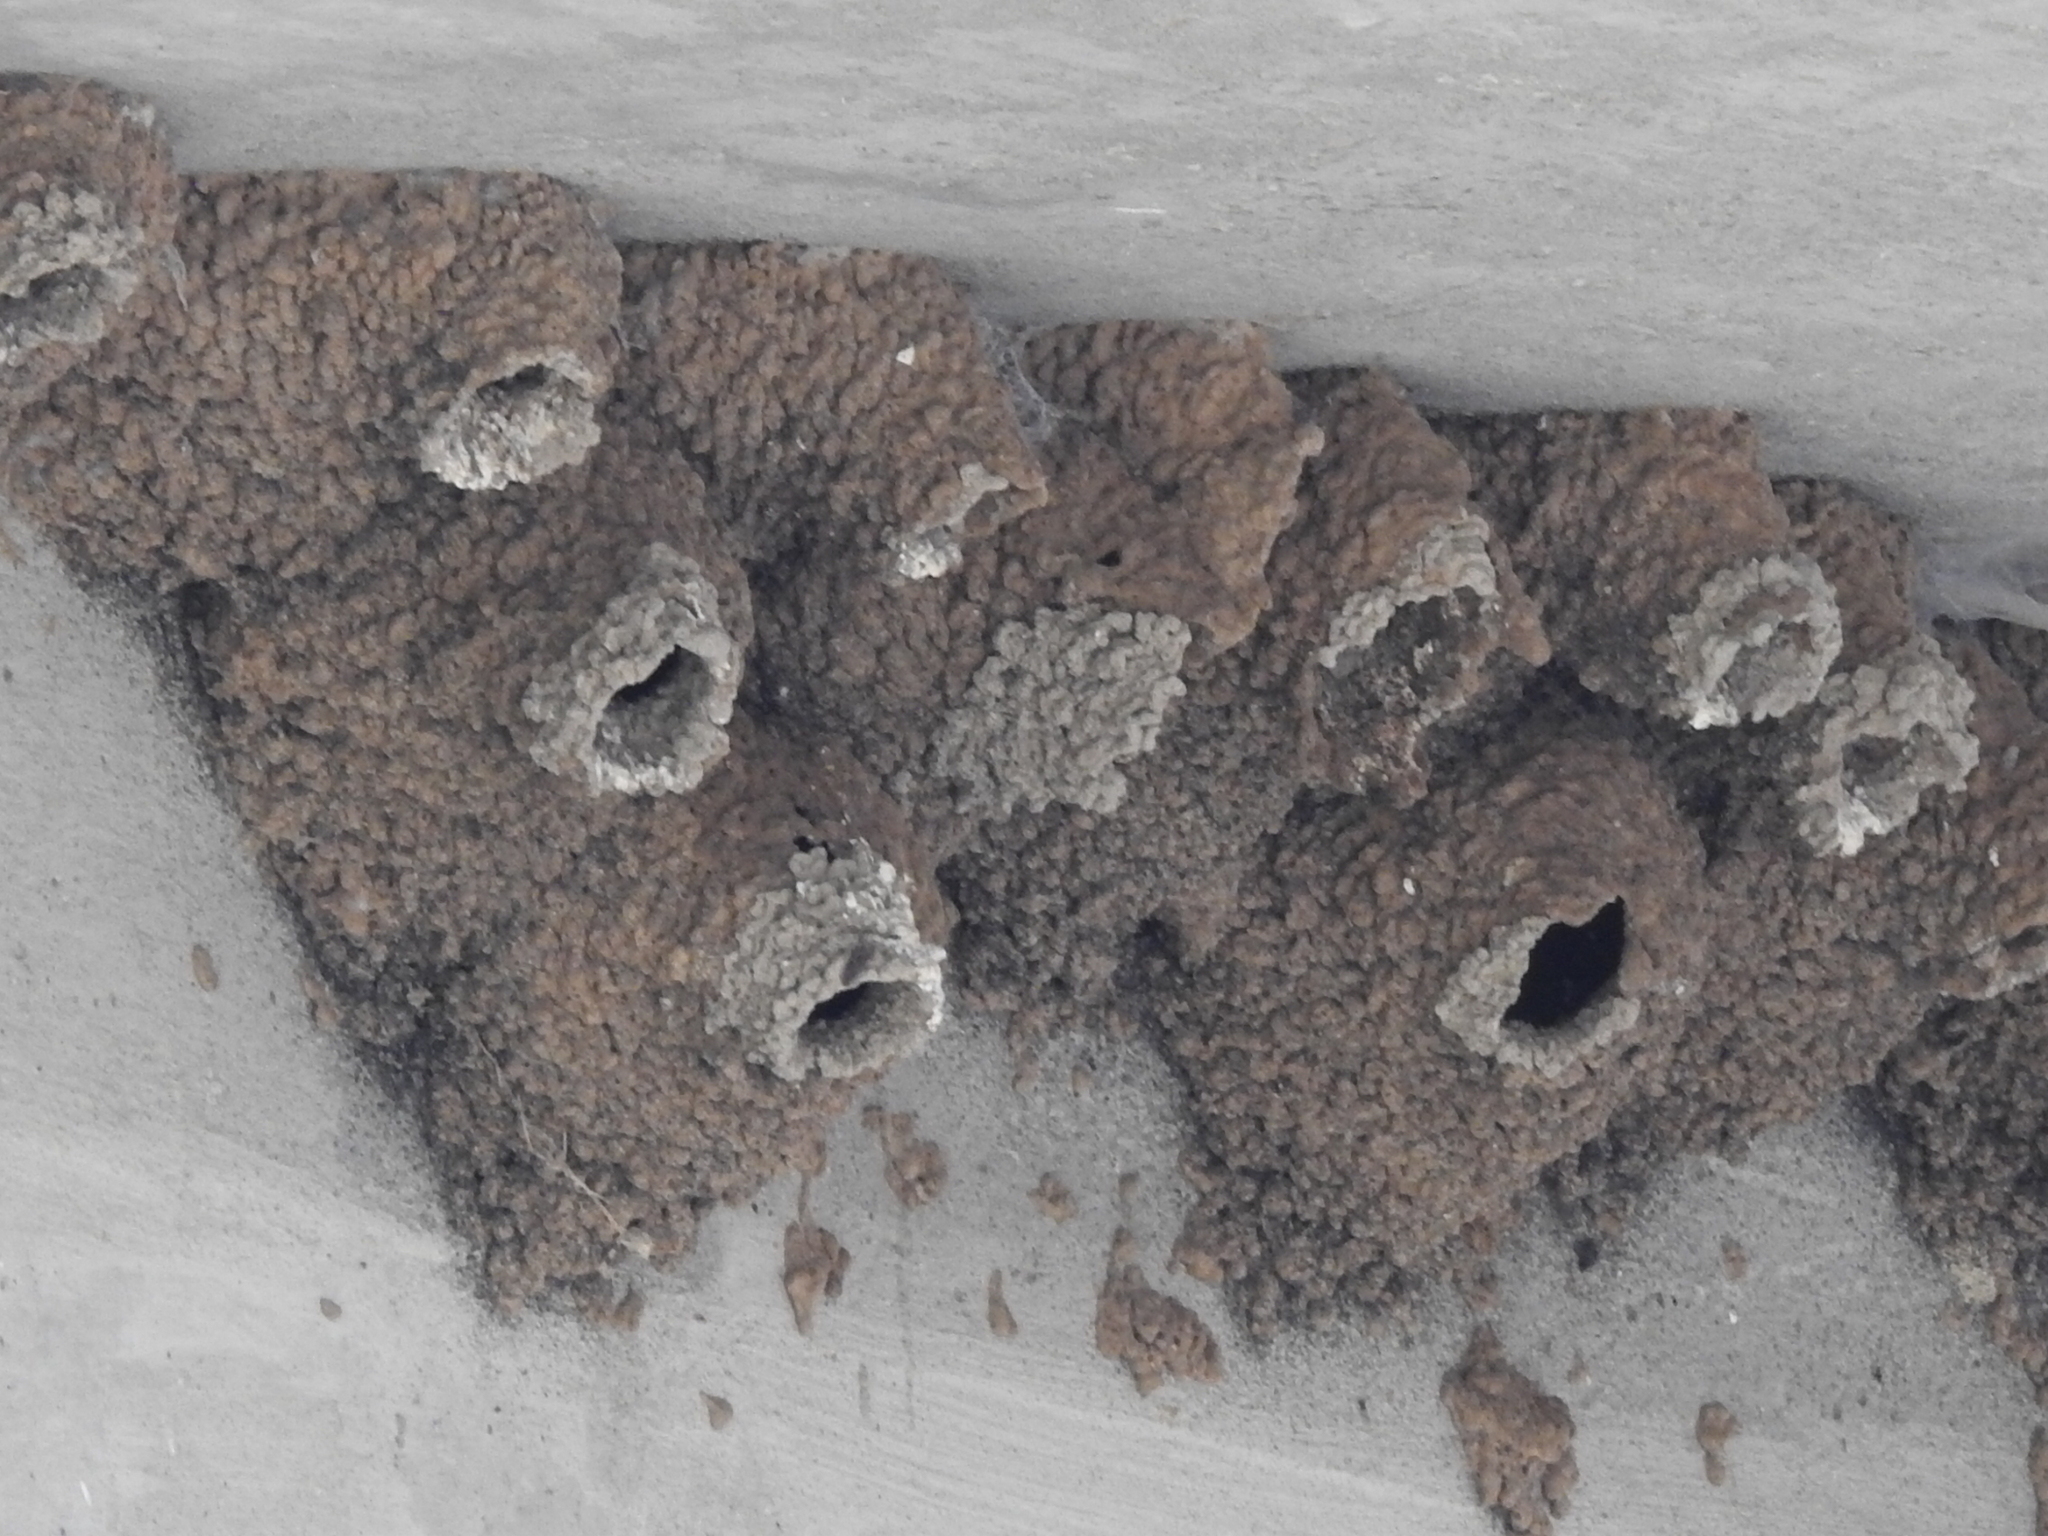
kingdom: Animalia
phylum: Chordata
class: Aves
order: Passeriformes
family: Hirundinidae
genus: Petrochelidon
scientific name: Petrochelidon pyrrhonota
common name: American cliff swallow
